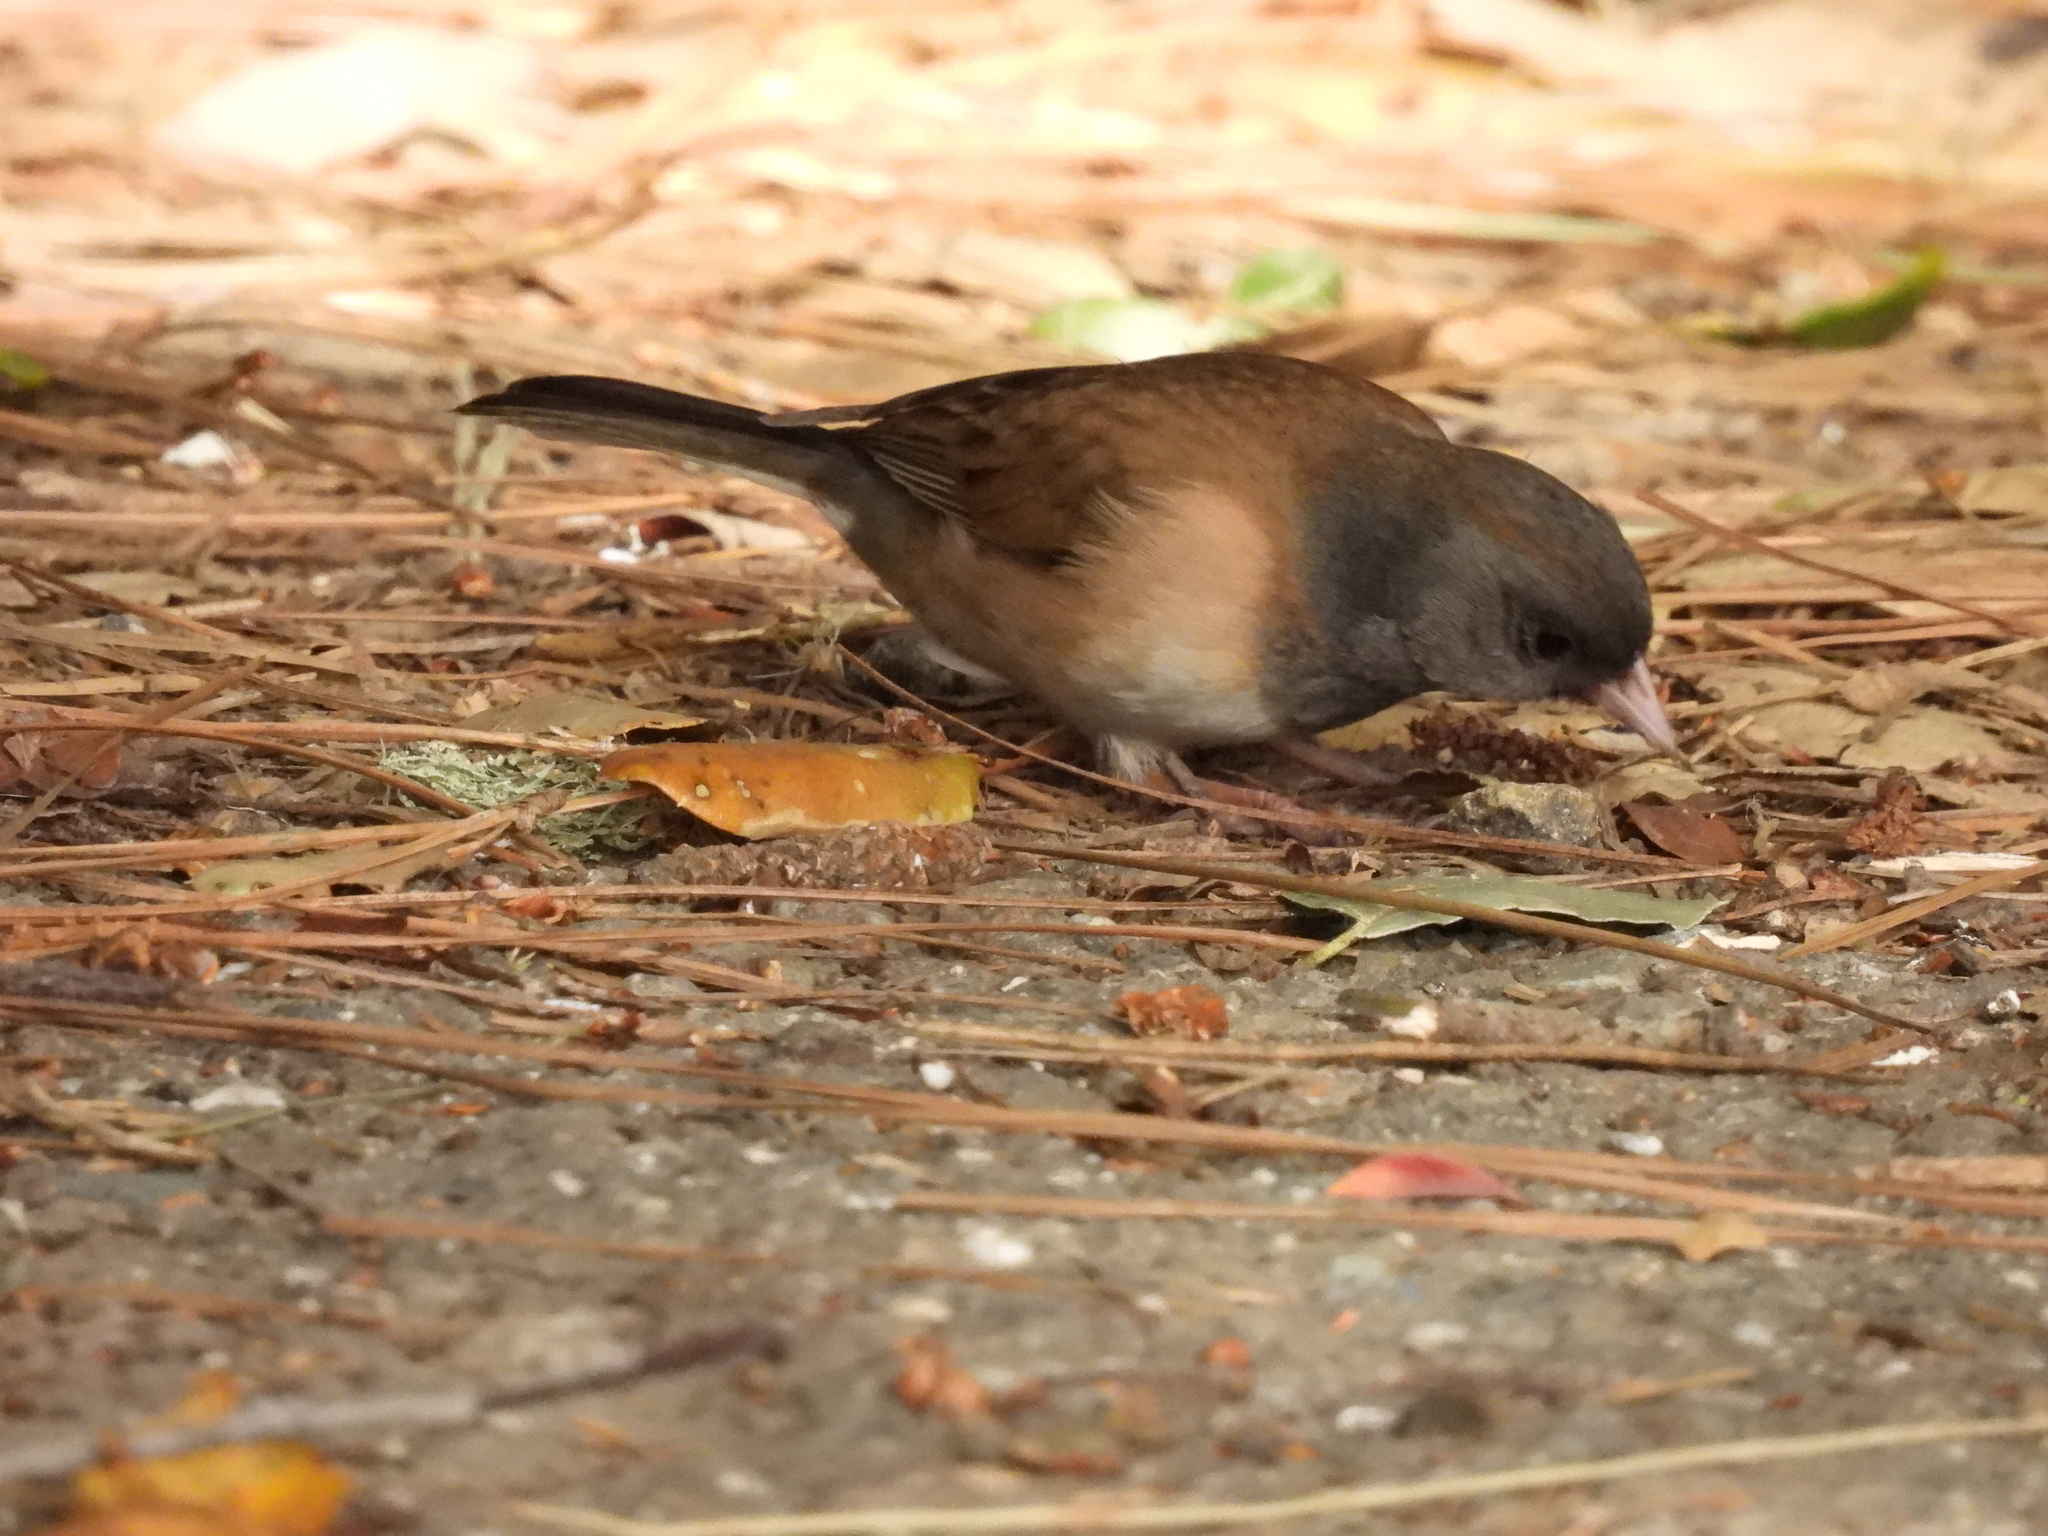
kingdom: Animalia
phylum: Chordata
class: Aves
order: Passeriformes
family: Passerellidae
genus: Junco
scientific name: Junco hyemalis
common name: Dark-eyed junco
